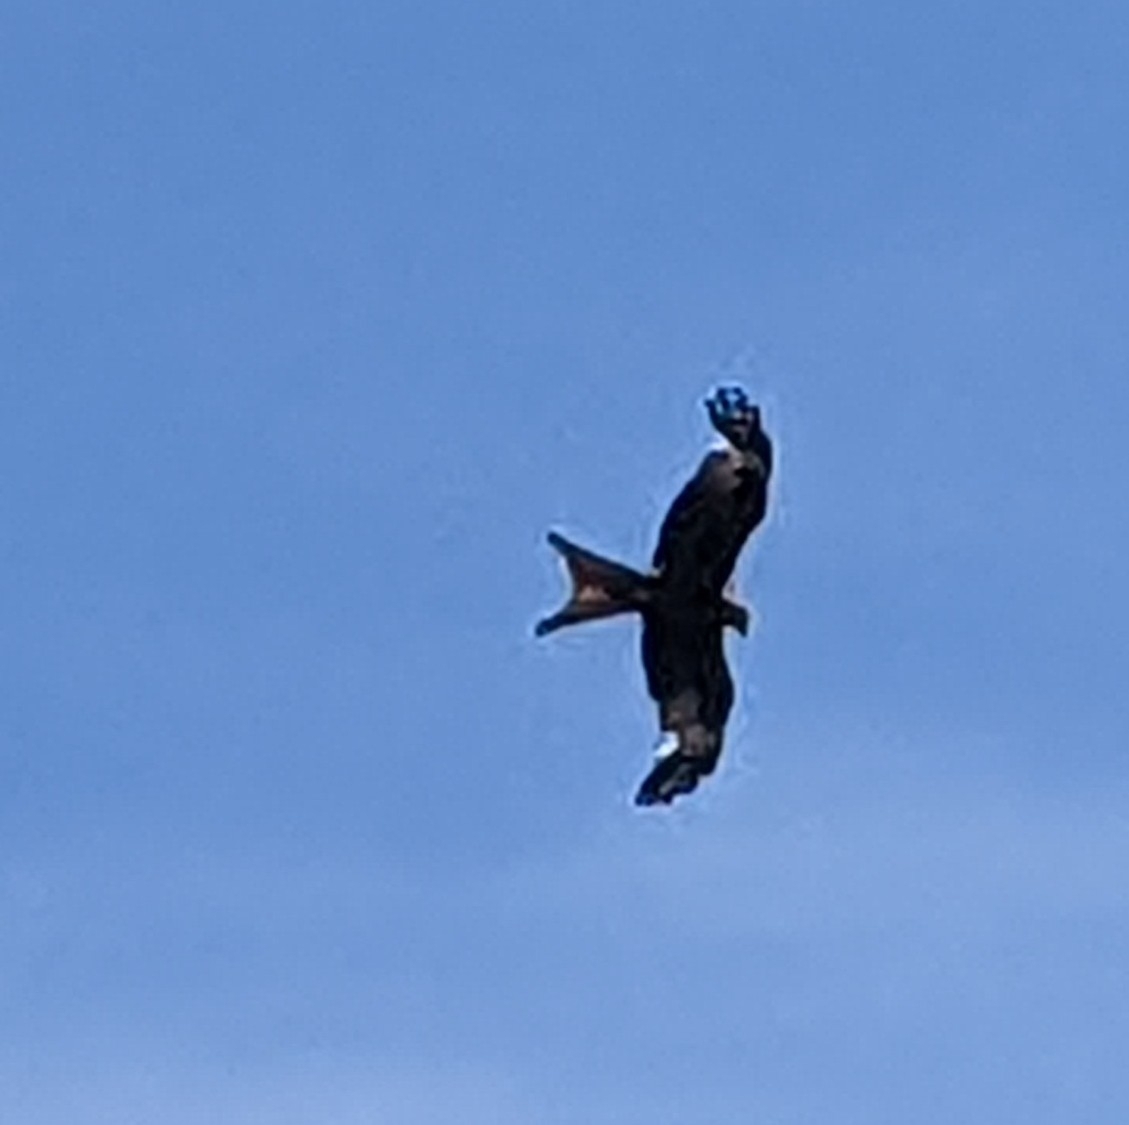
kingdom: Animalia
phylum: Chordata
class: Aves
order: Accipitriformes
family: Accipitridae
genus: Milvus
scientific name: Milvus milvus
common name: Red kite
